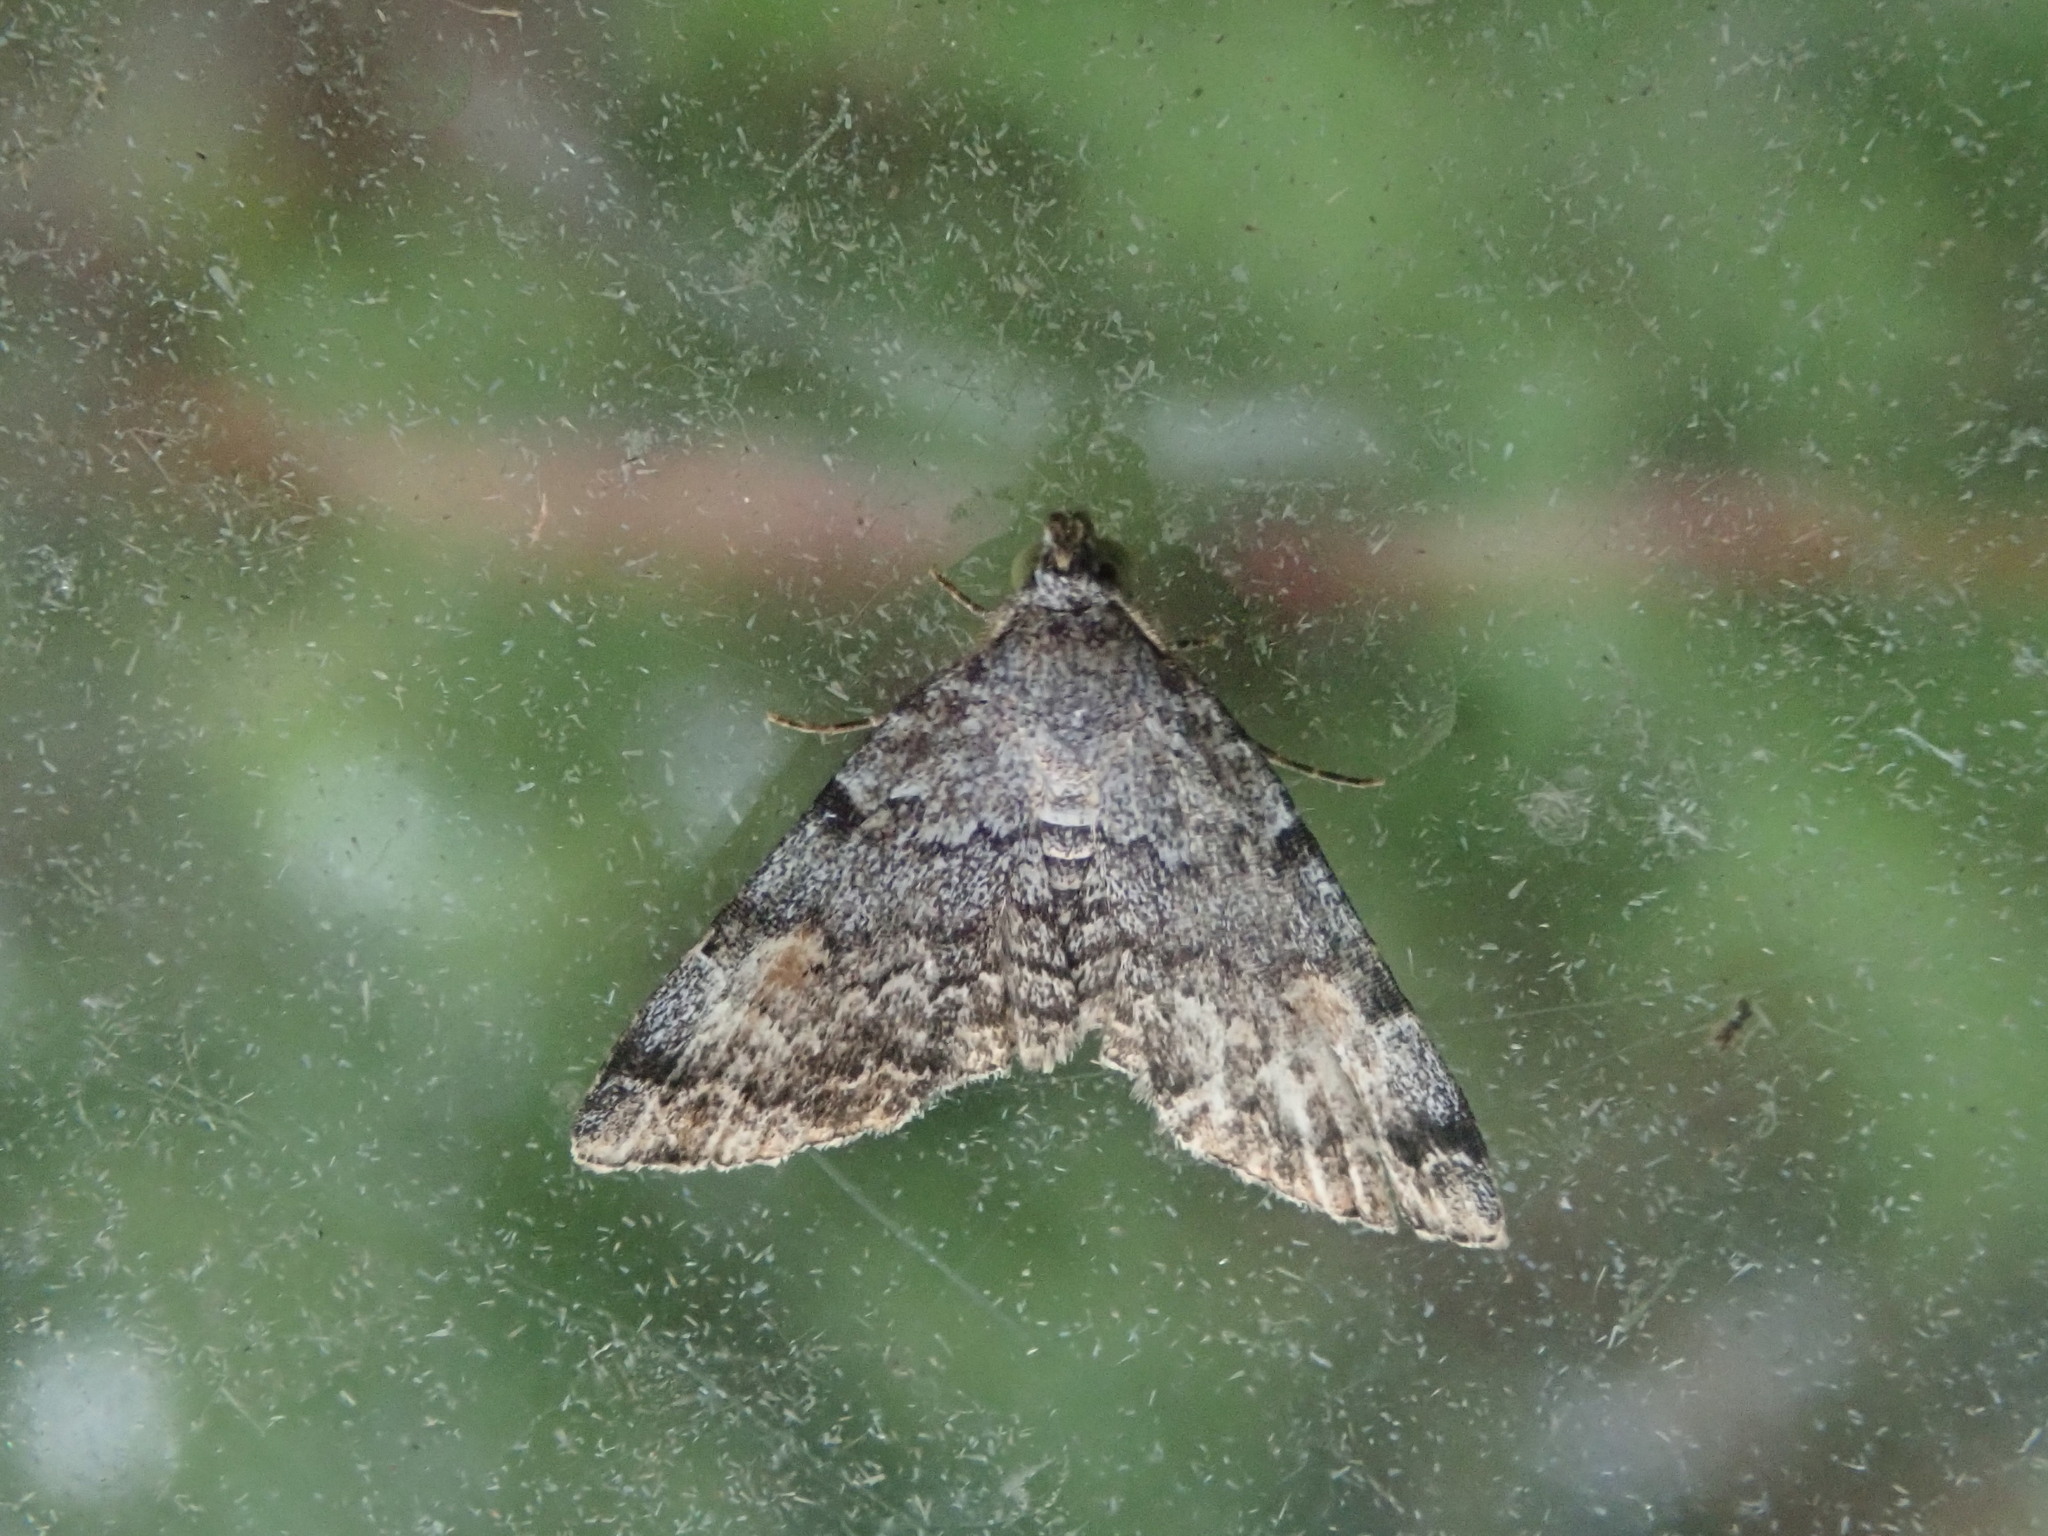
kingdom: Animalia
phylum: Arthropoda
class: Insecta
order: Lepidoptera
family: Erebidae
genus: Idia
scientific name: Idia americalis
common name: American idia moth
